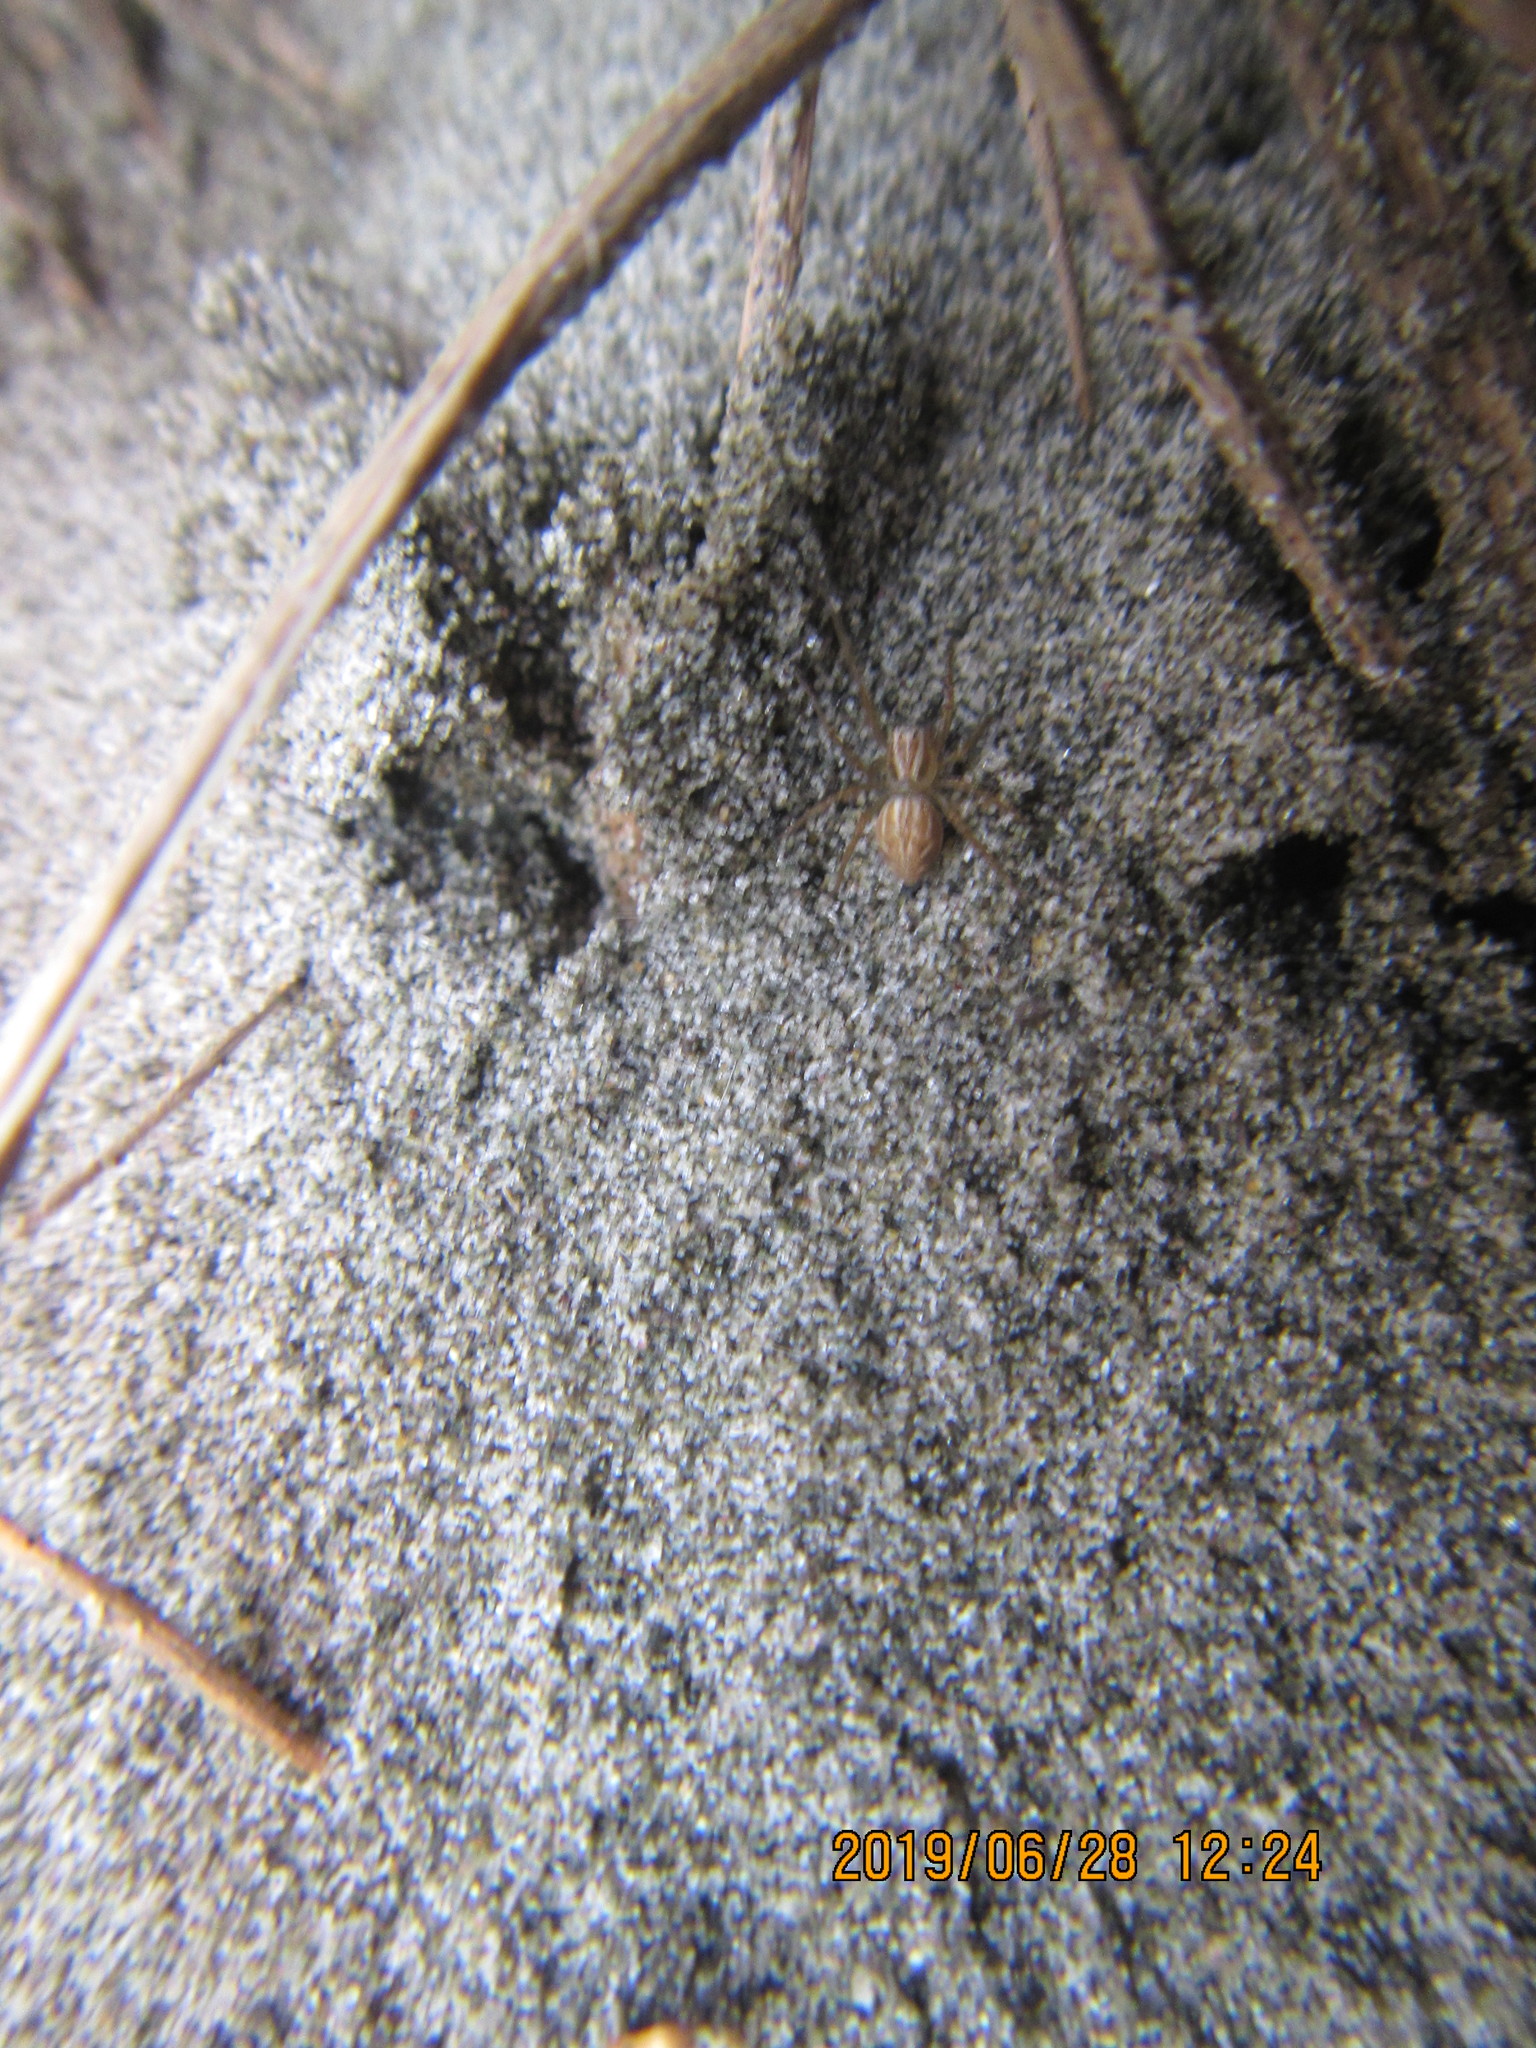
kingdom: Animalia
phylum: Arthropoda
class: Arachnida
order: Araneae
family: Oxyopidae
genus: Oxyopes
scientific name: Oxyopes gracilipes
